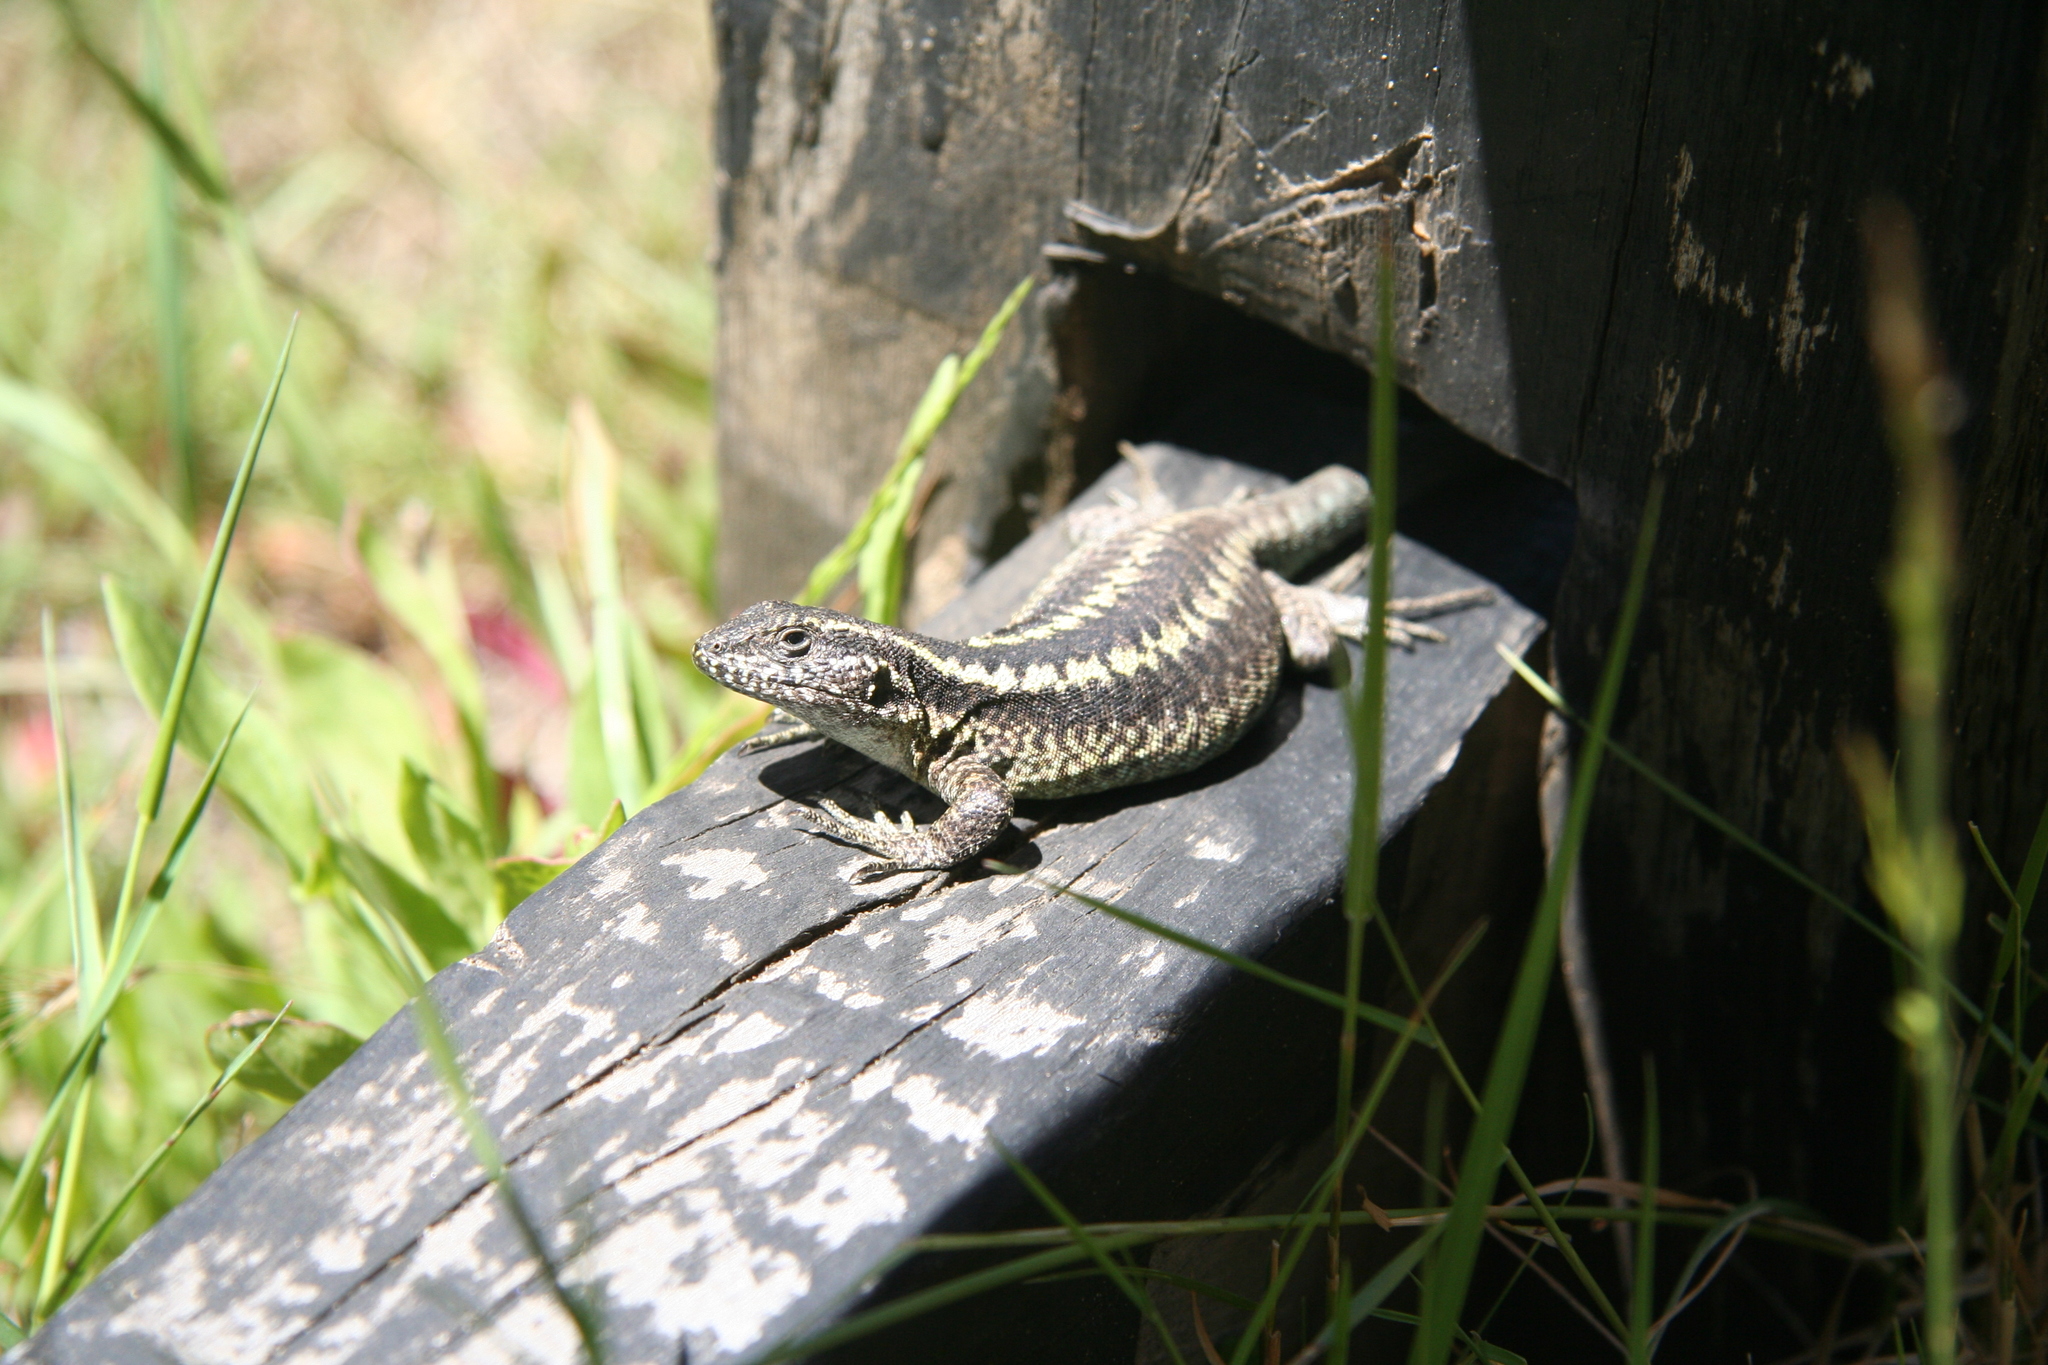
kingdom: Animalia
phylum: Chordata
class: Squamata
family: Liolaemidae
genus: Liolaemus
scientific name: Liolaemus septentrionalis
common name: Painted tree iguana
